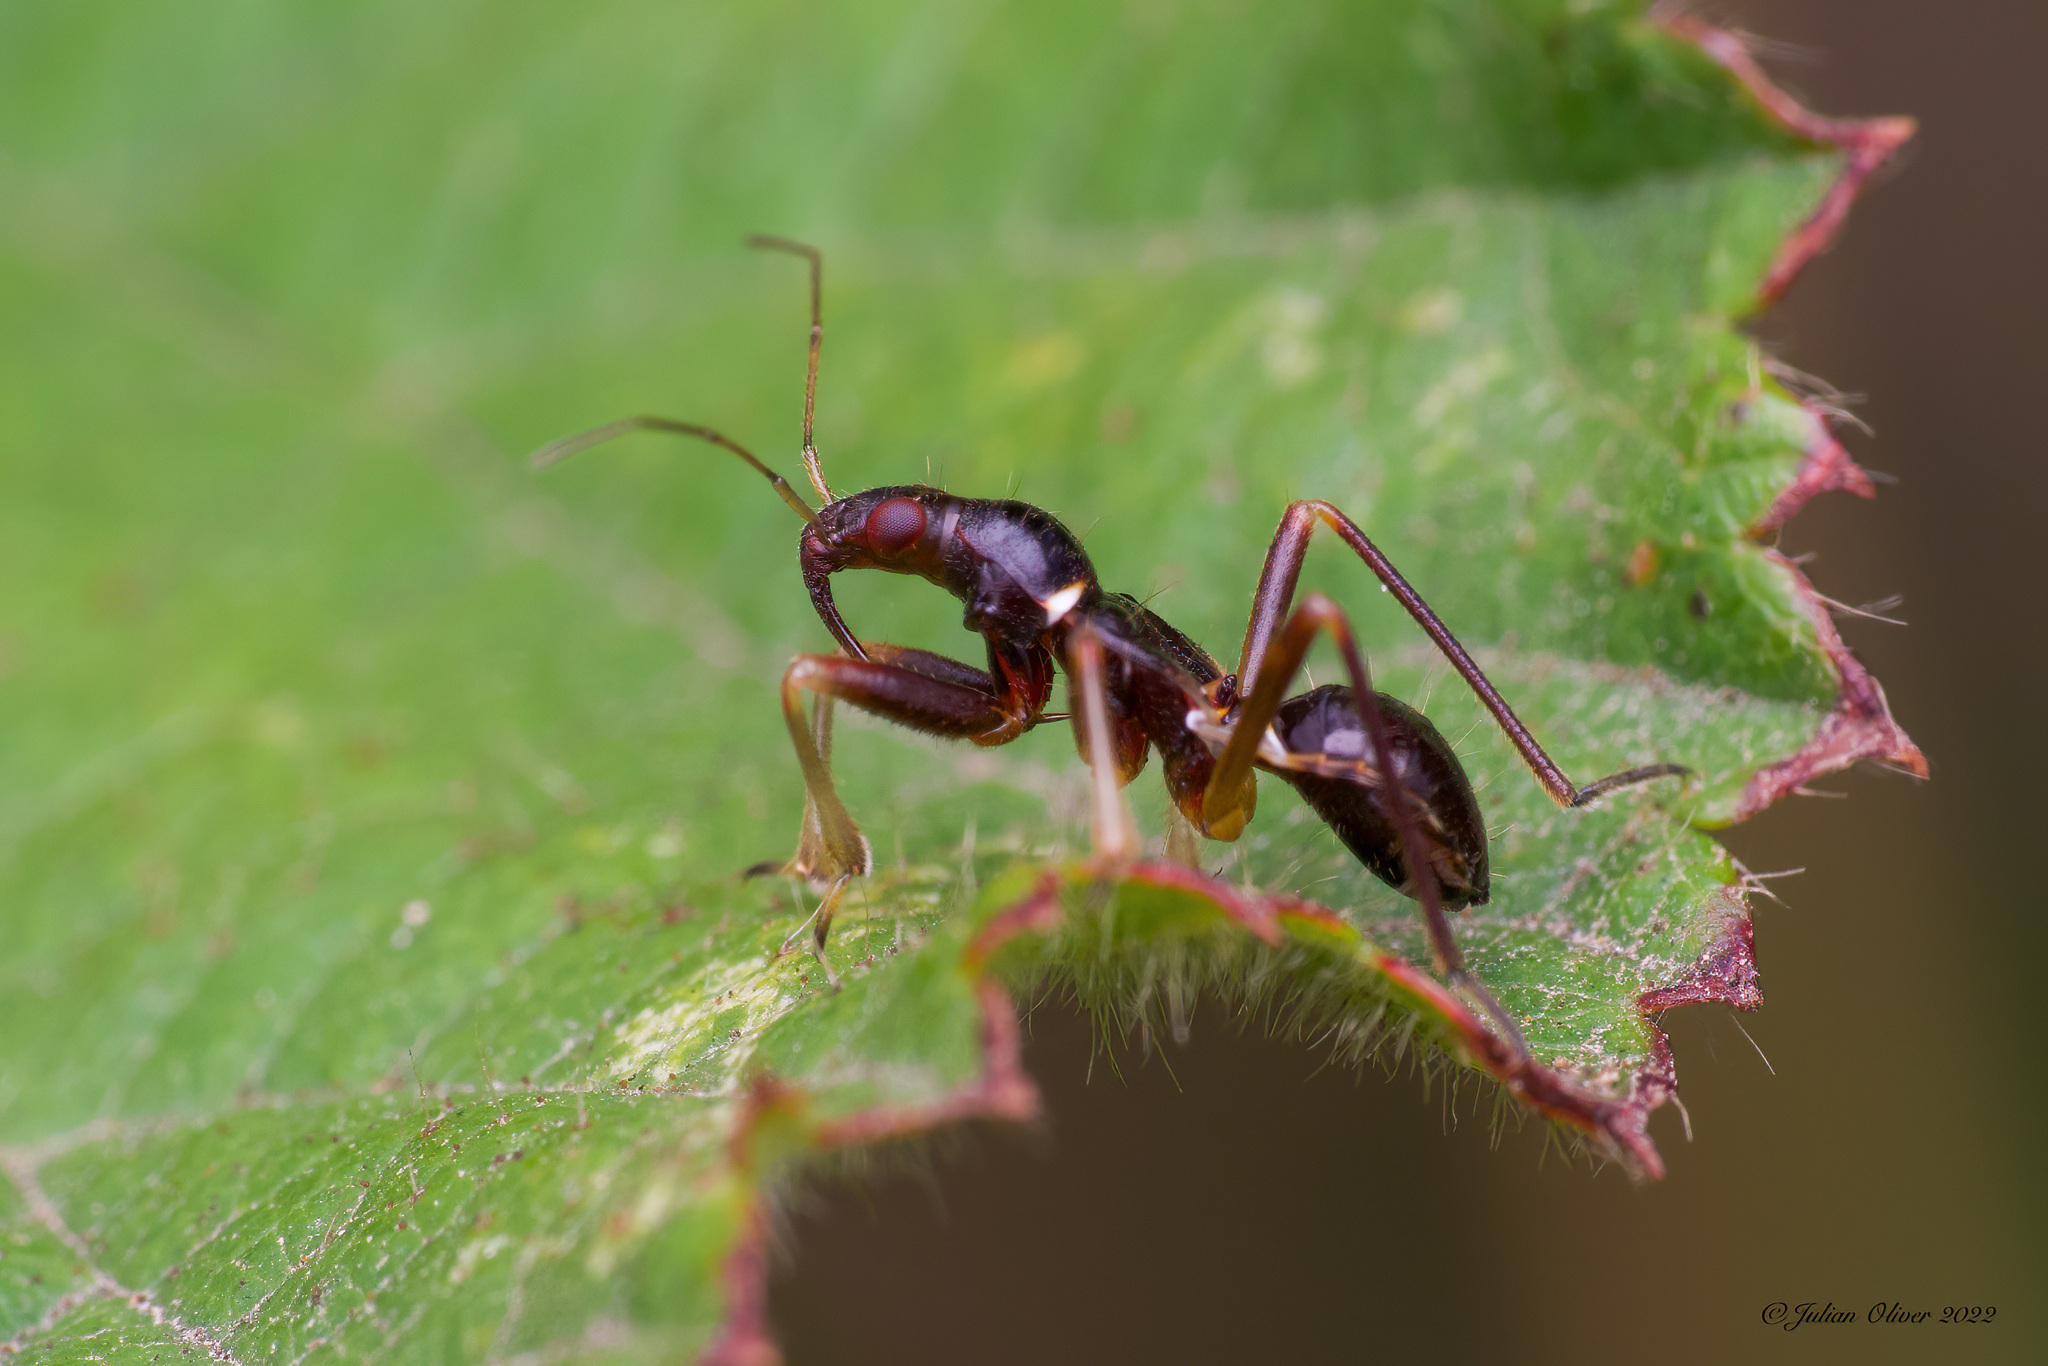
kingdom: Animalia
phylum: Arthropoda
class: Insecta
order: Hemiptera
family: Nabidae
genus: Himacerus
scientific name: Himacerus mirmicoides
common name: Ant damsel bug
